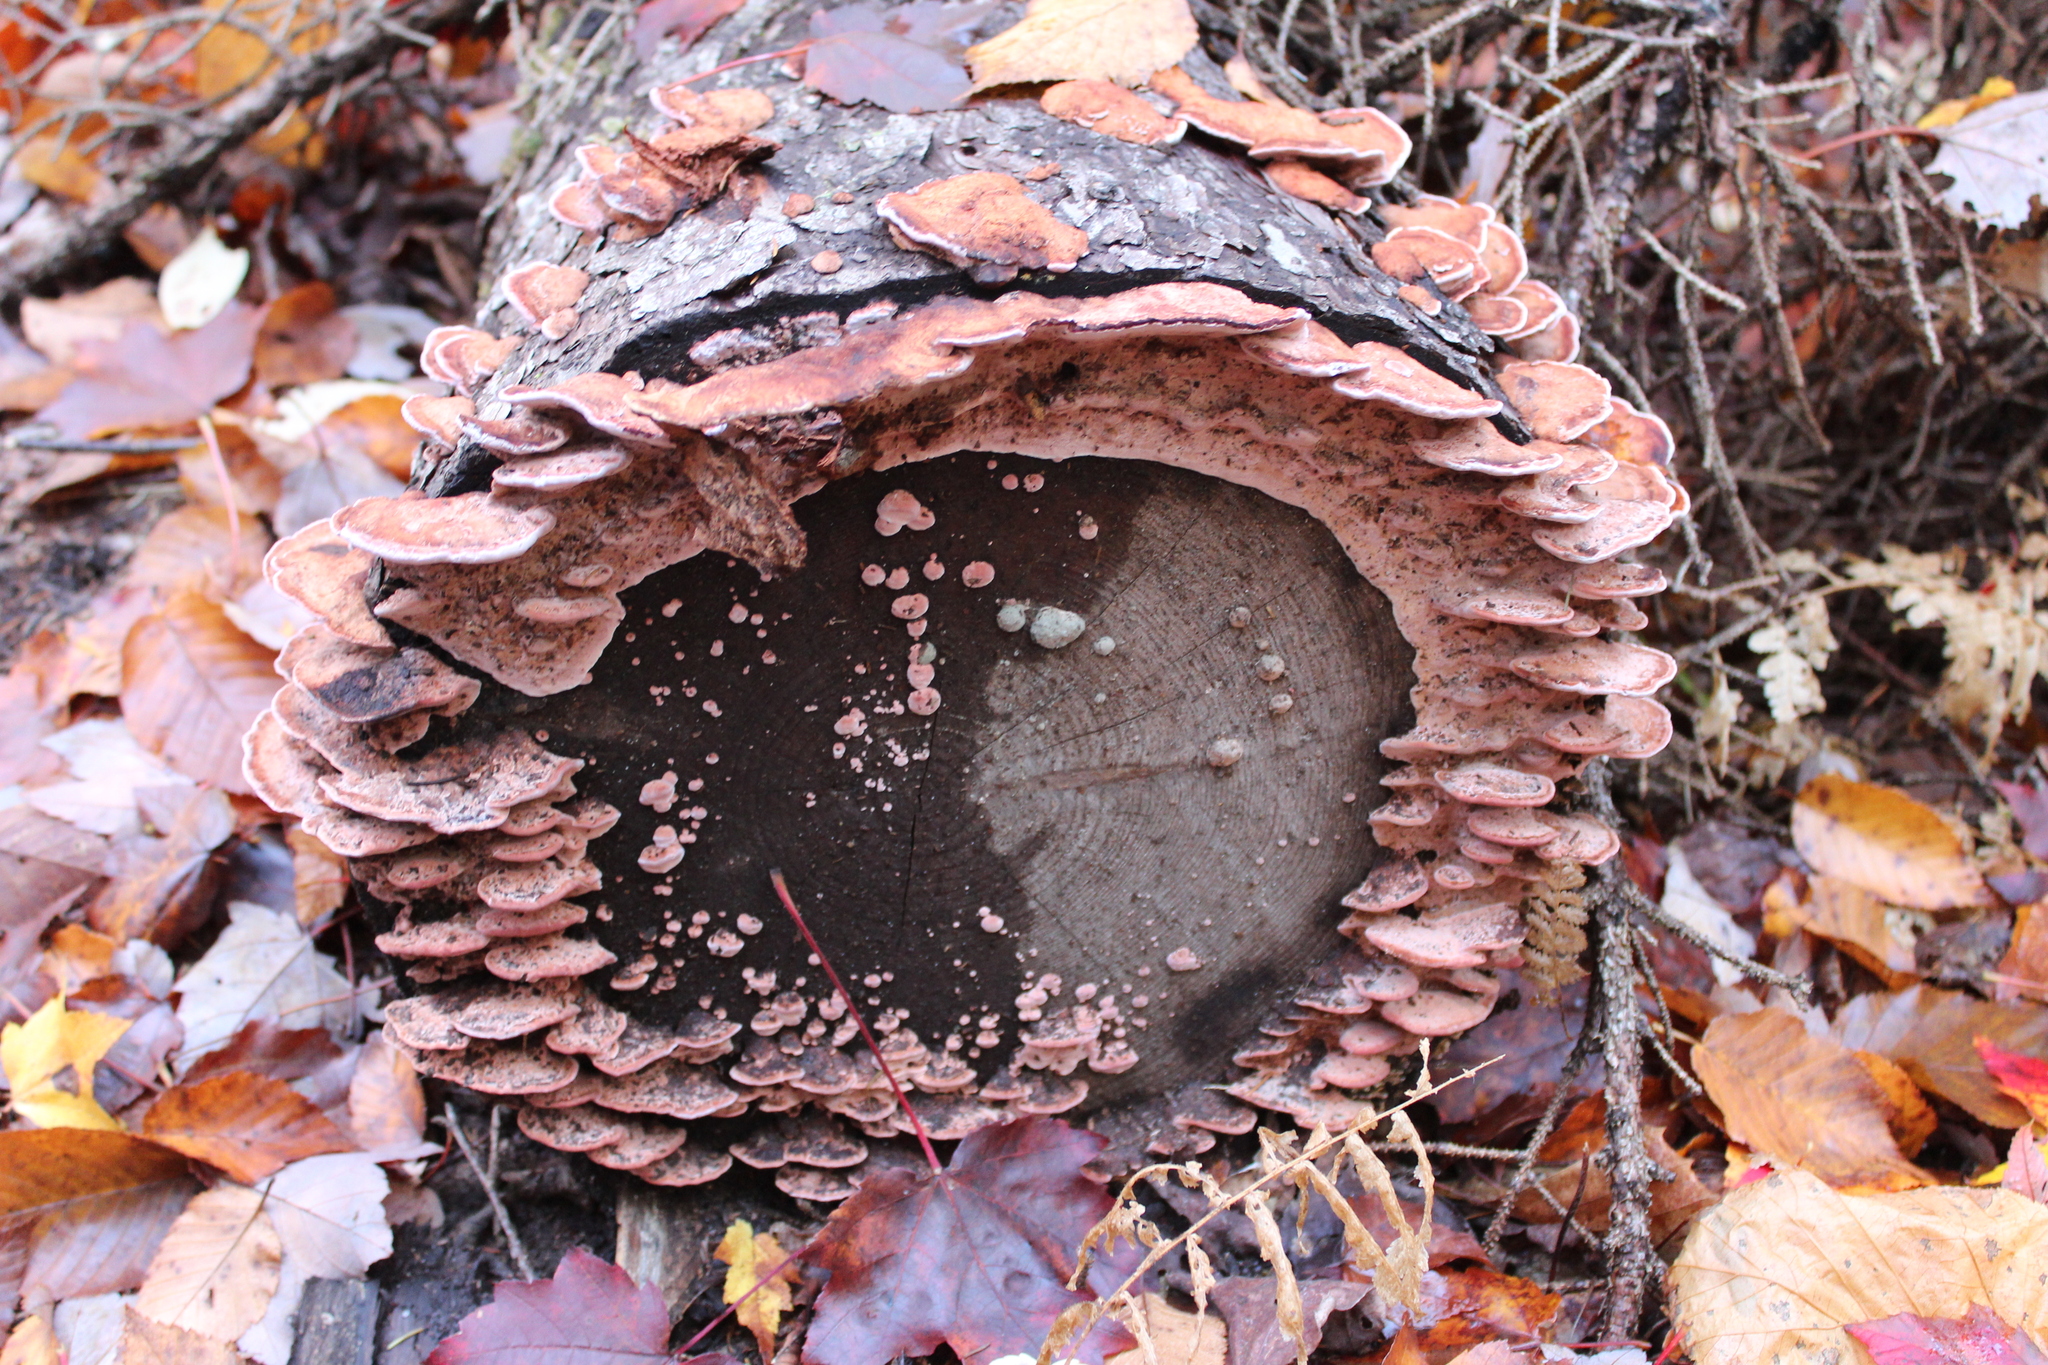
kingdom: Fungi
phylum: Basidiomycota
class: Agaricomycetes
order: Polyporales
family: Fomitopsidaceae
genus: Rhodofomes
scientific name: Rhodofomes cajanderi
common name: Rosy conk
